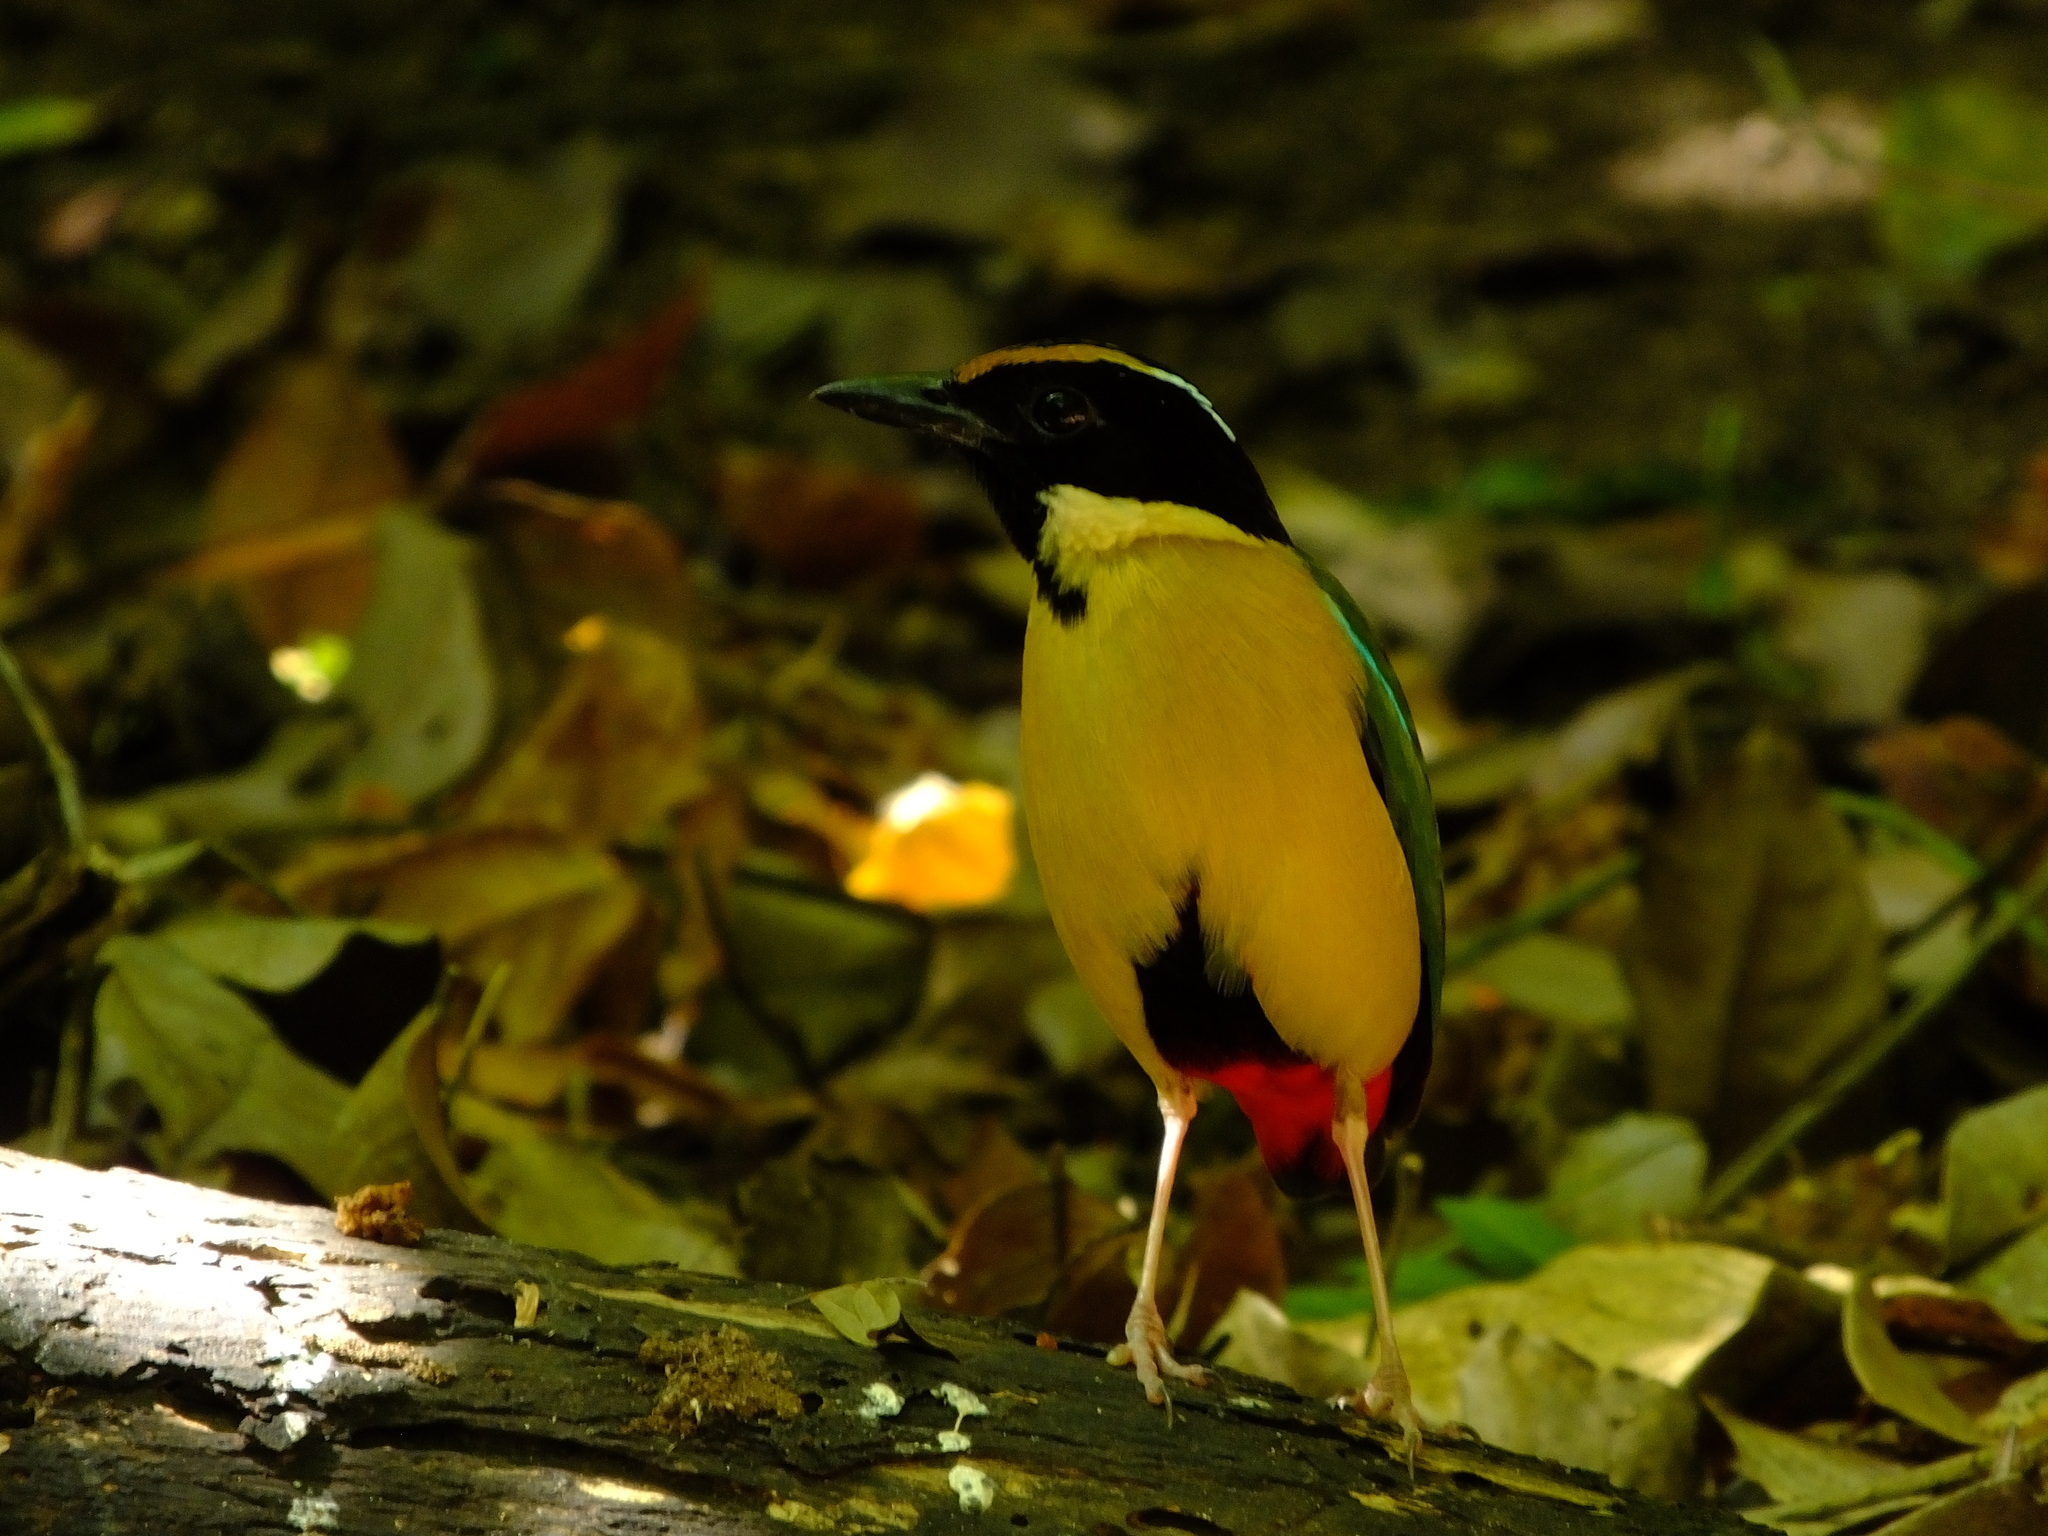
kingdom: Animalia
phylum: Chordata
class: Aves
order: Passeriformes
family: Pittidae
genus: Pitta
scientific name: Pitta concinna
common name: Ornate pitta
